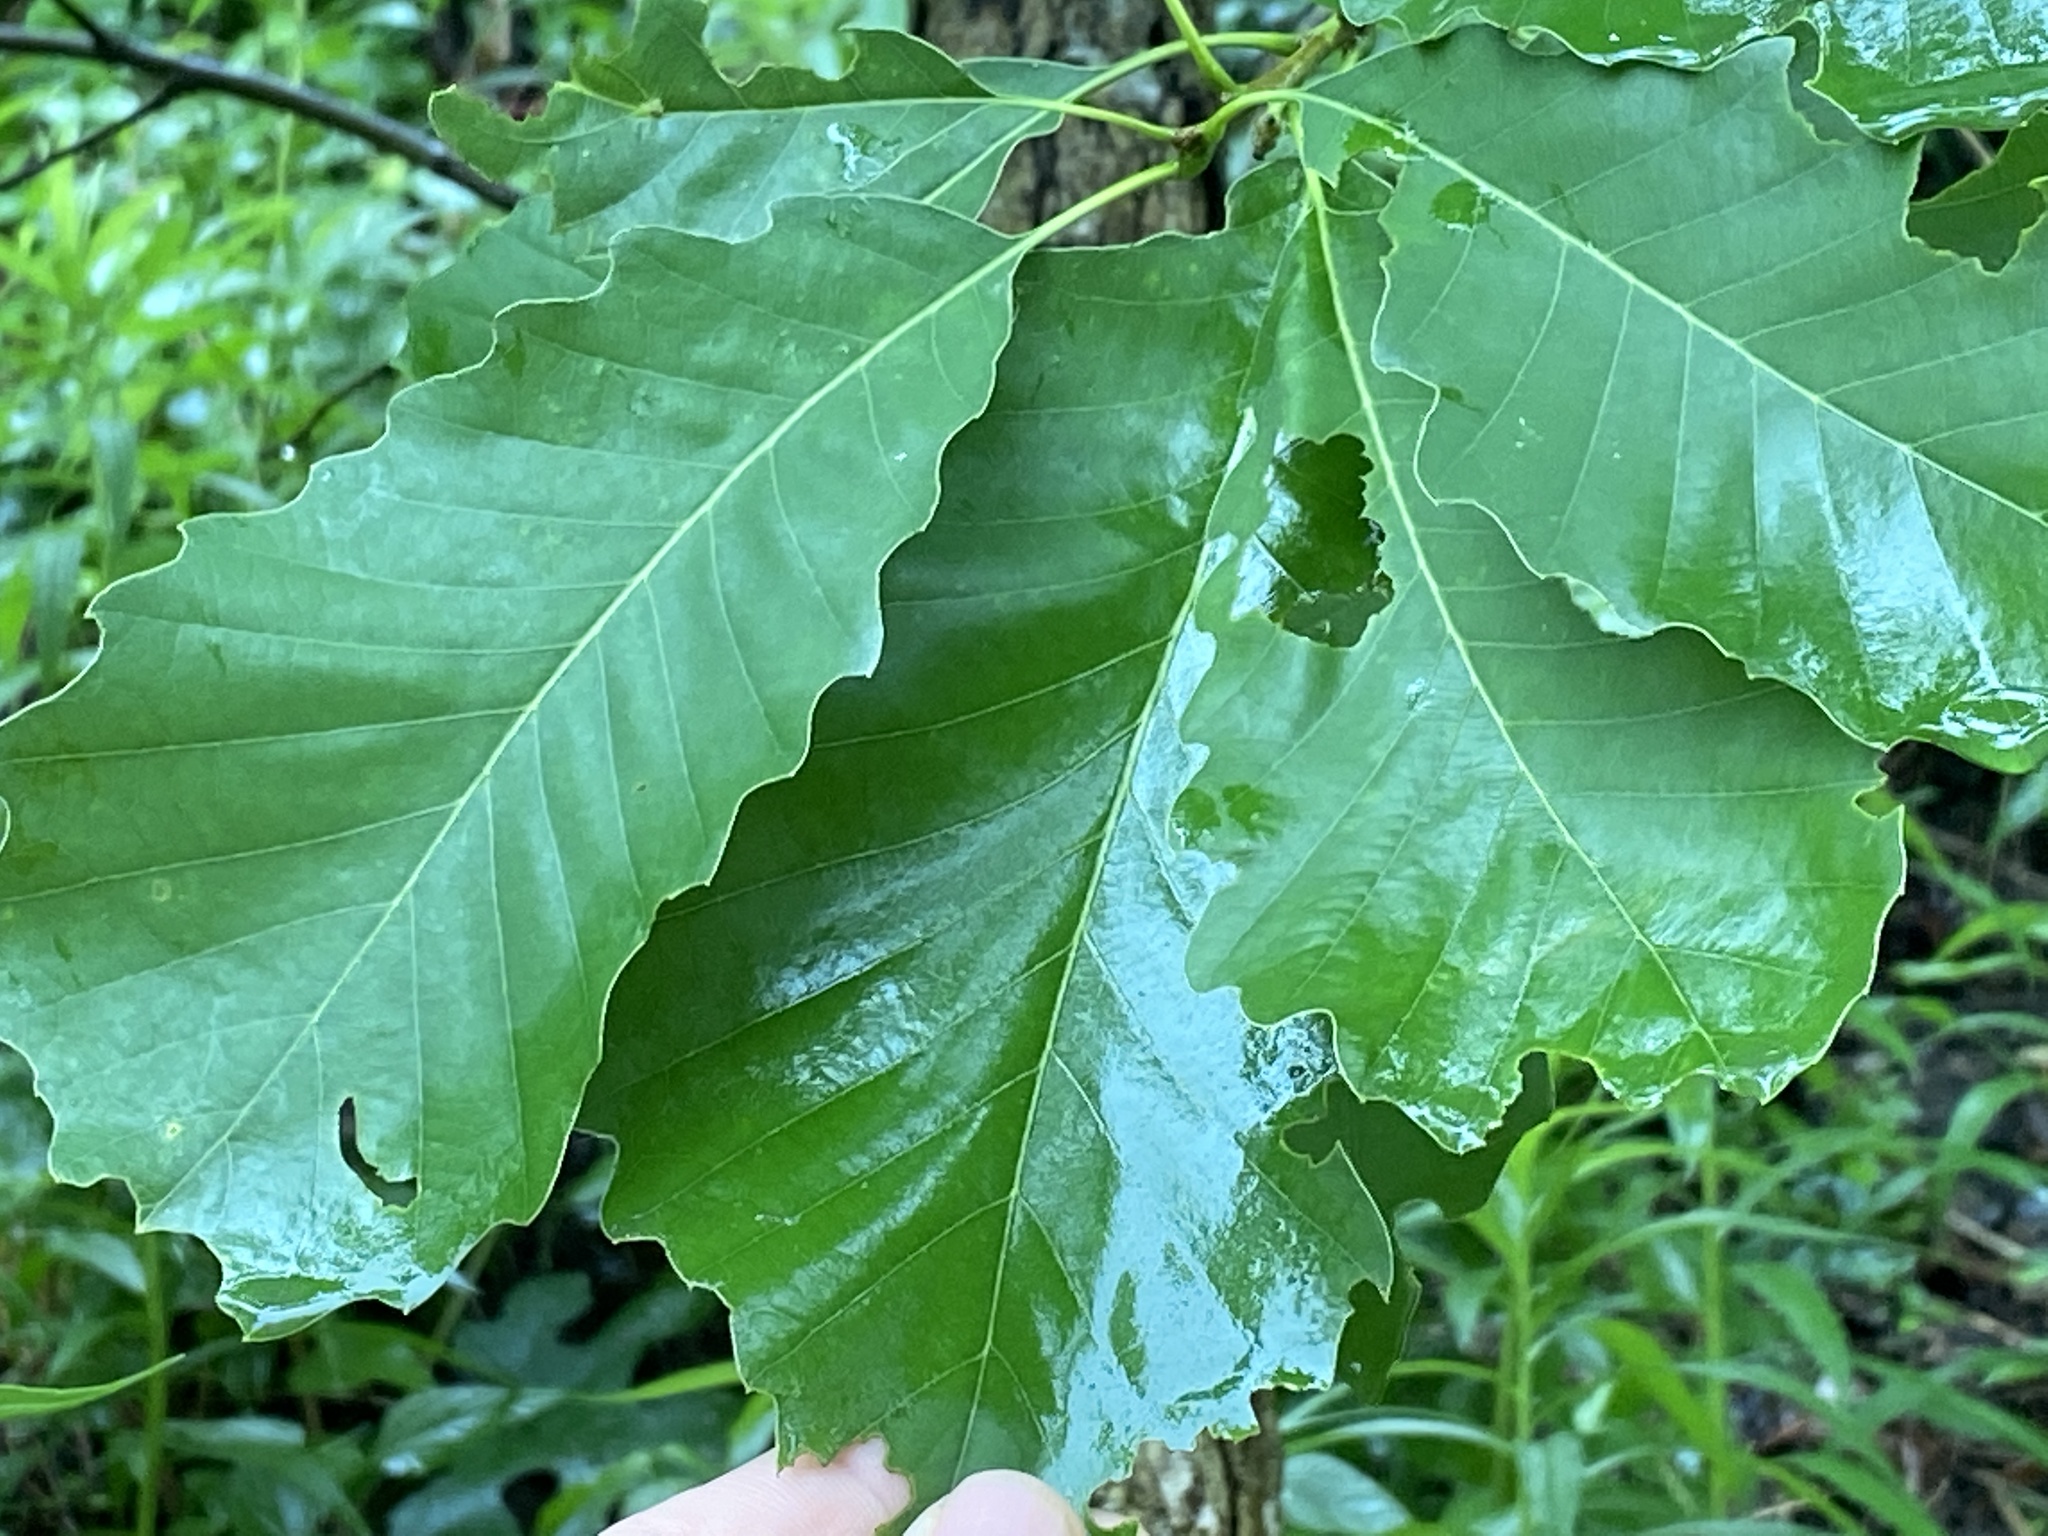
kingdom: Plantae
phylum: Tracheophyta
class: Magnoliopsida
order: Fagales
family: Fagaceae
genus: Quercus
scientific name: Quercus michauxii
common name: Swamp chestnut oak
